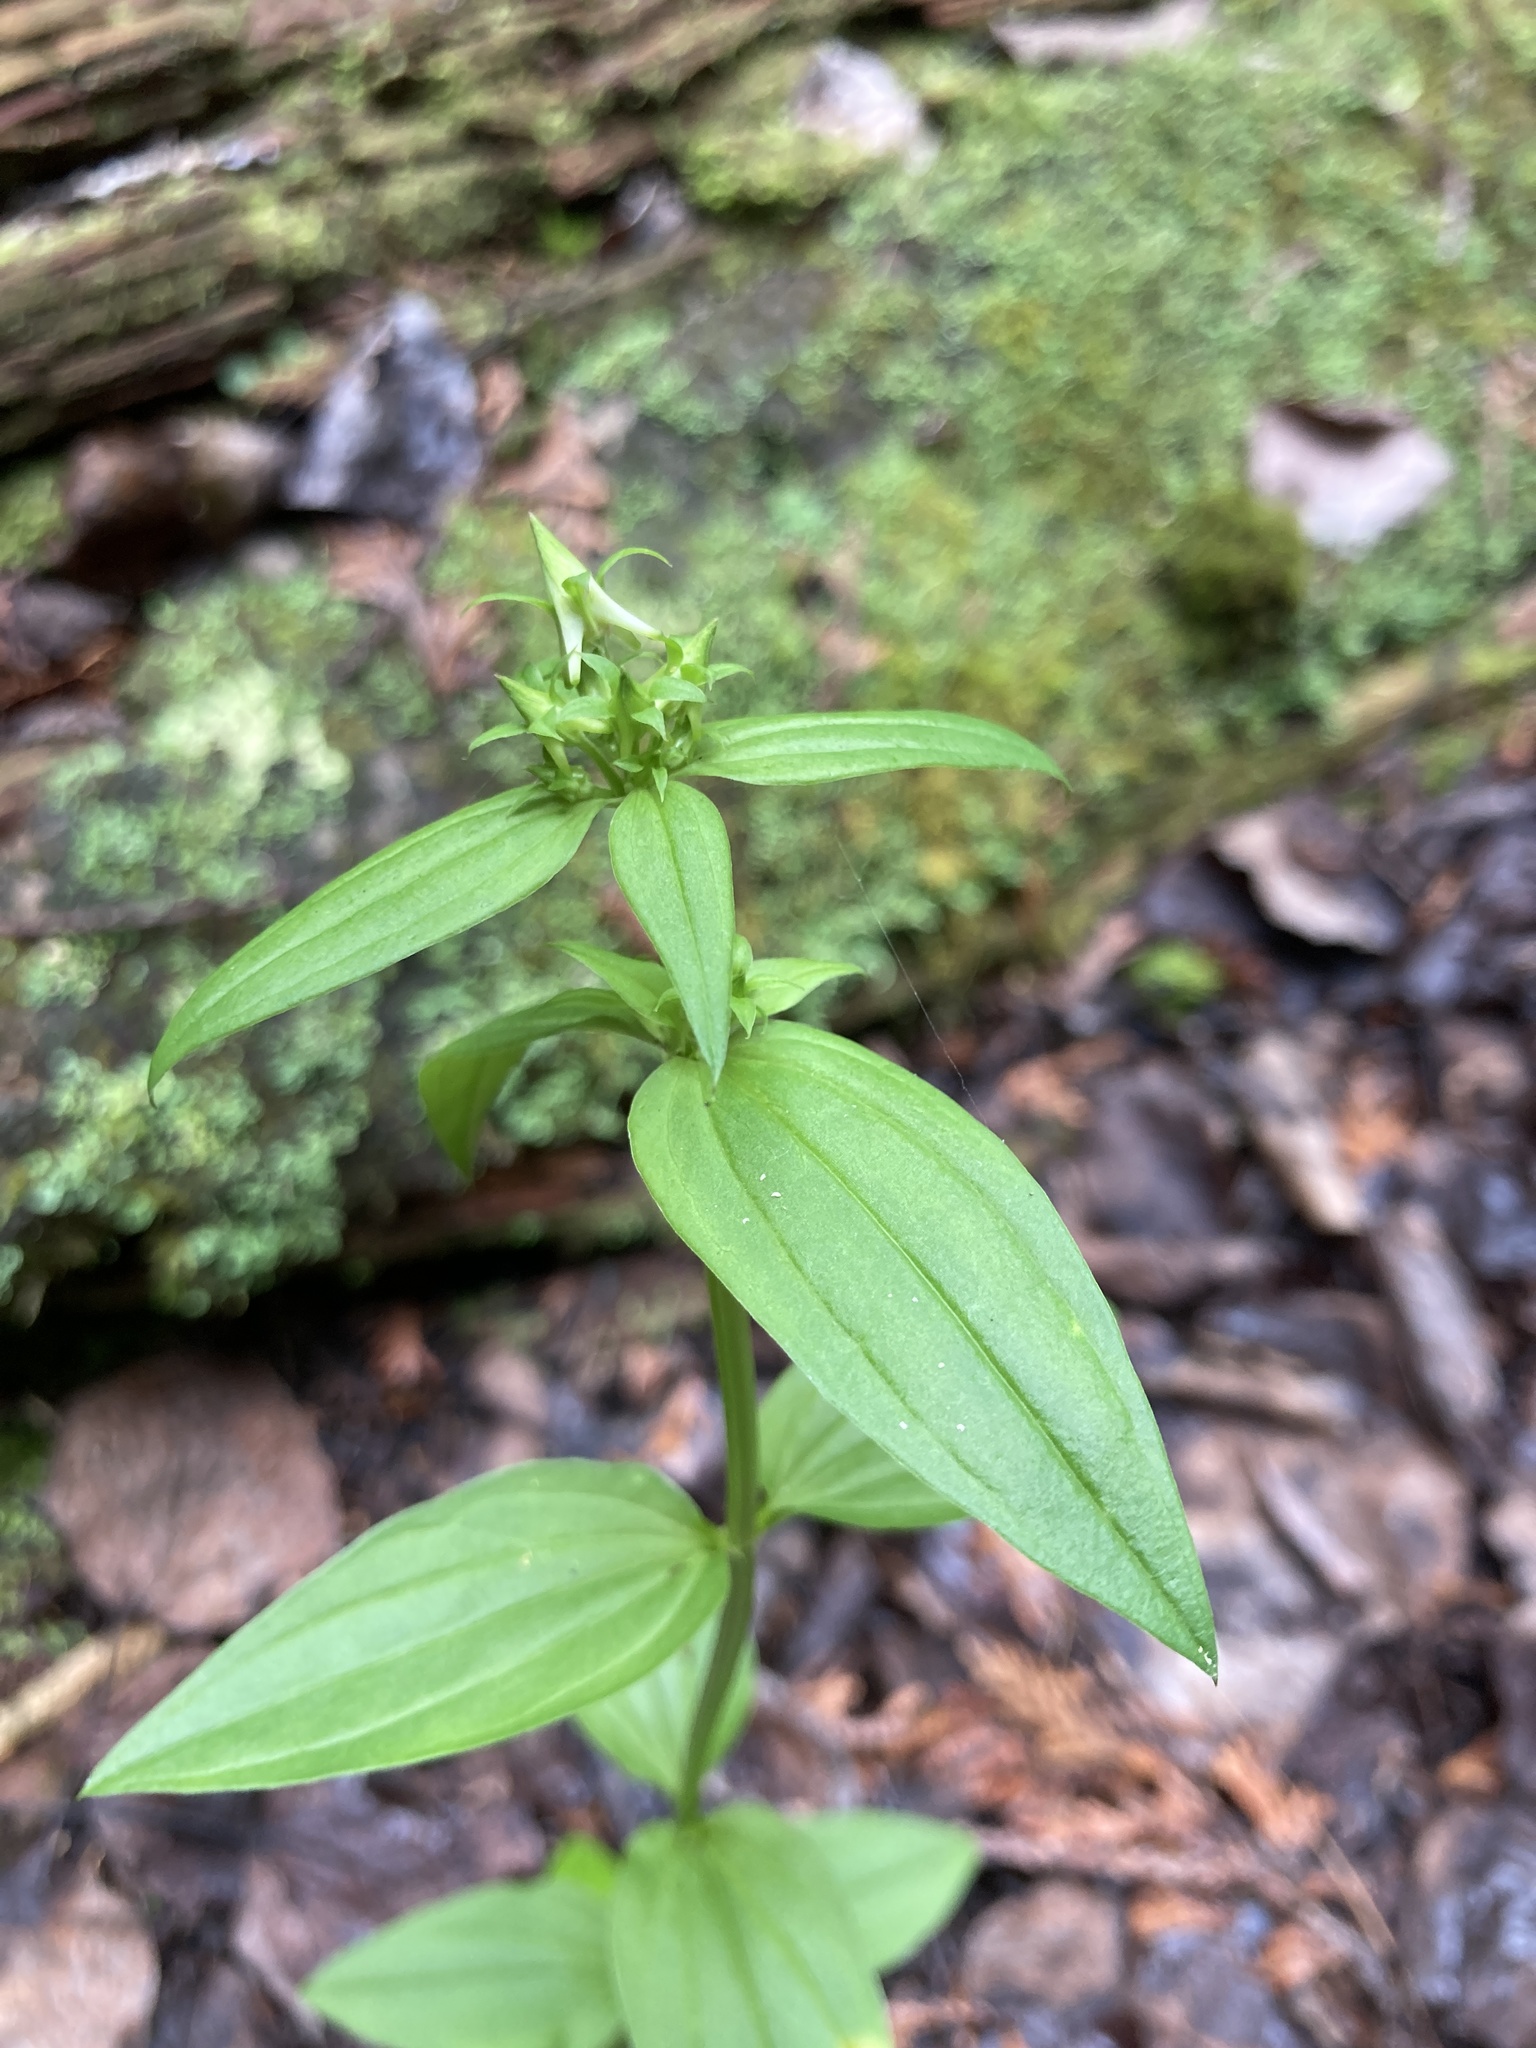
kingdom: Plantae
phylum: Tracheophyta
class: Magnoliopsida
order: Gentianales
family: Gentianaceae
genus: Halenia
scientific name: Halenia deflexa
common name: American spurred gentian
